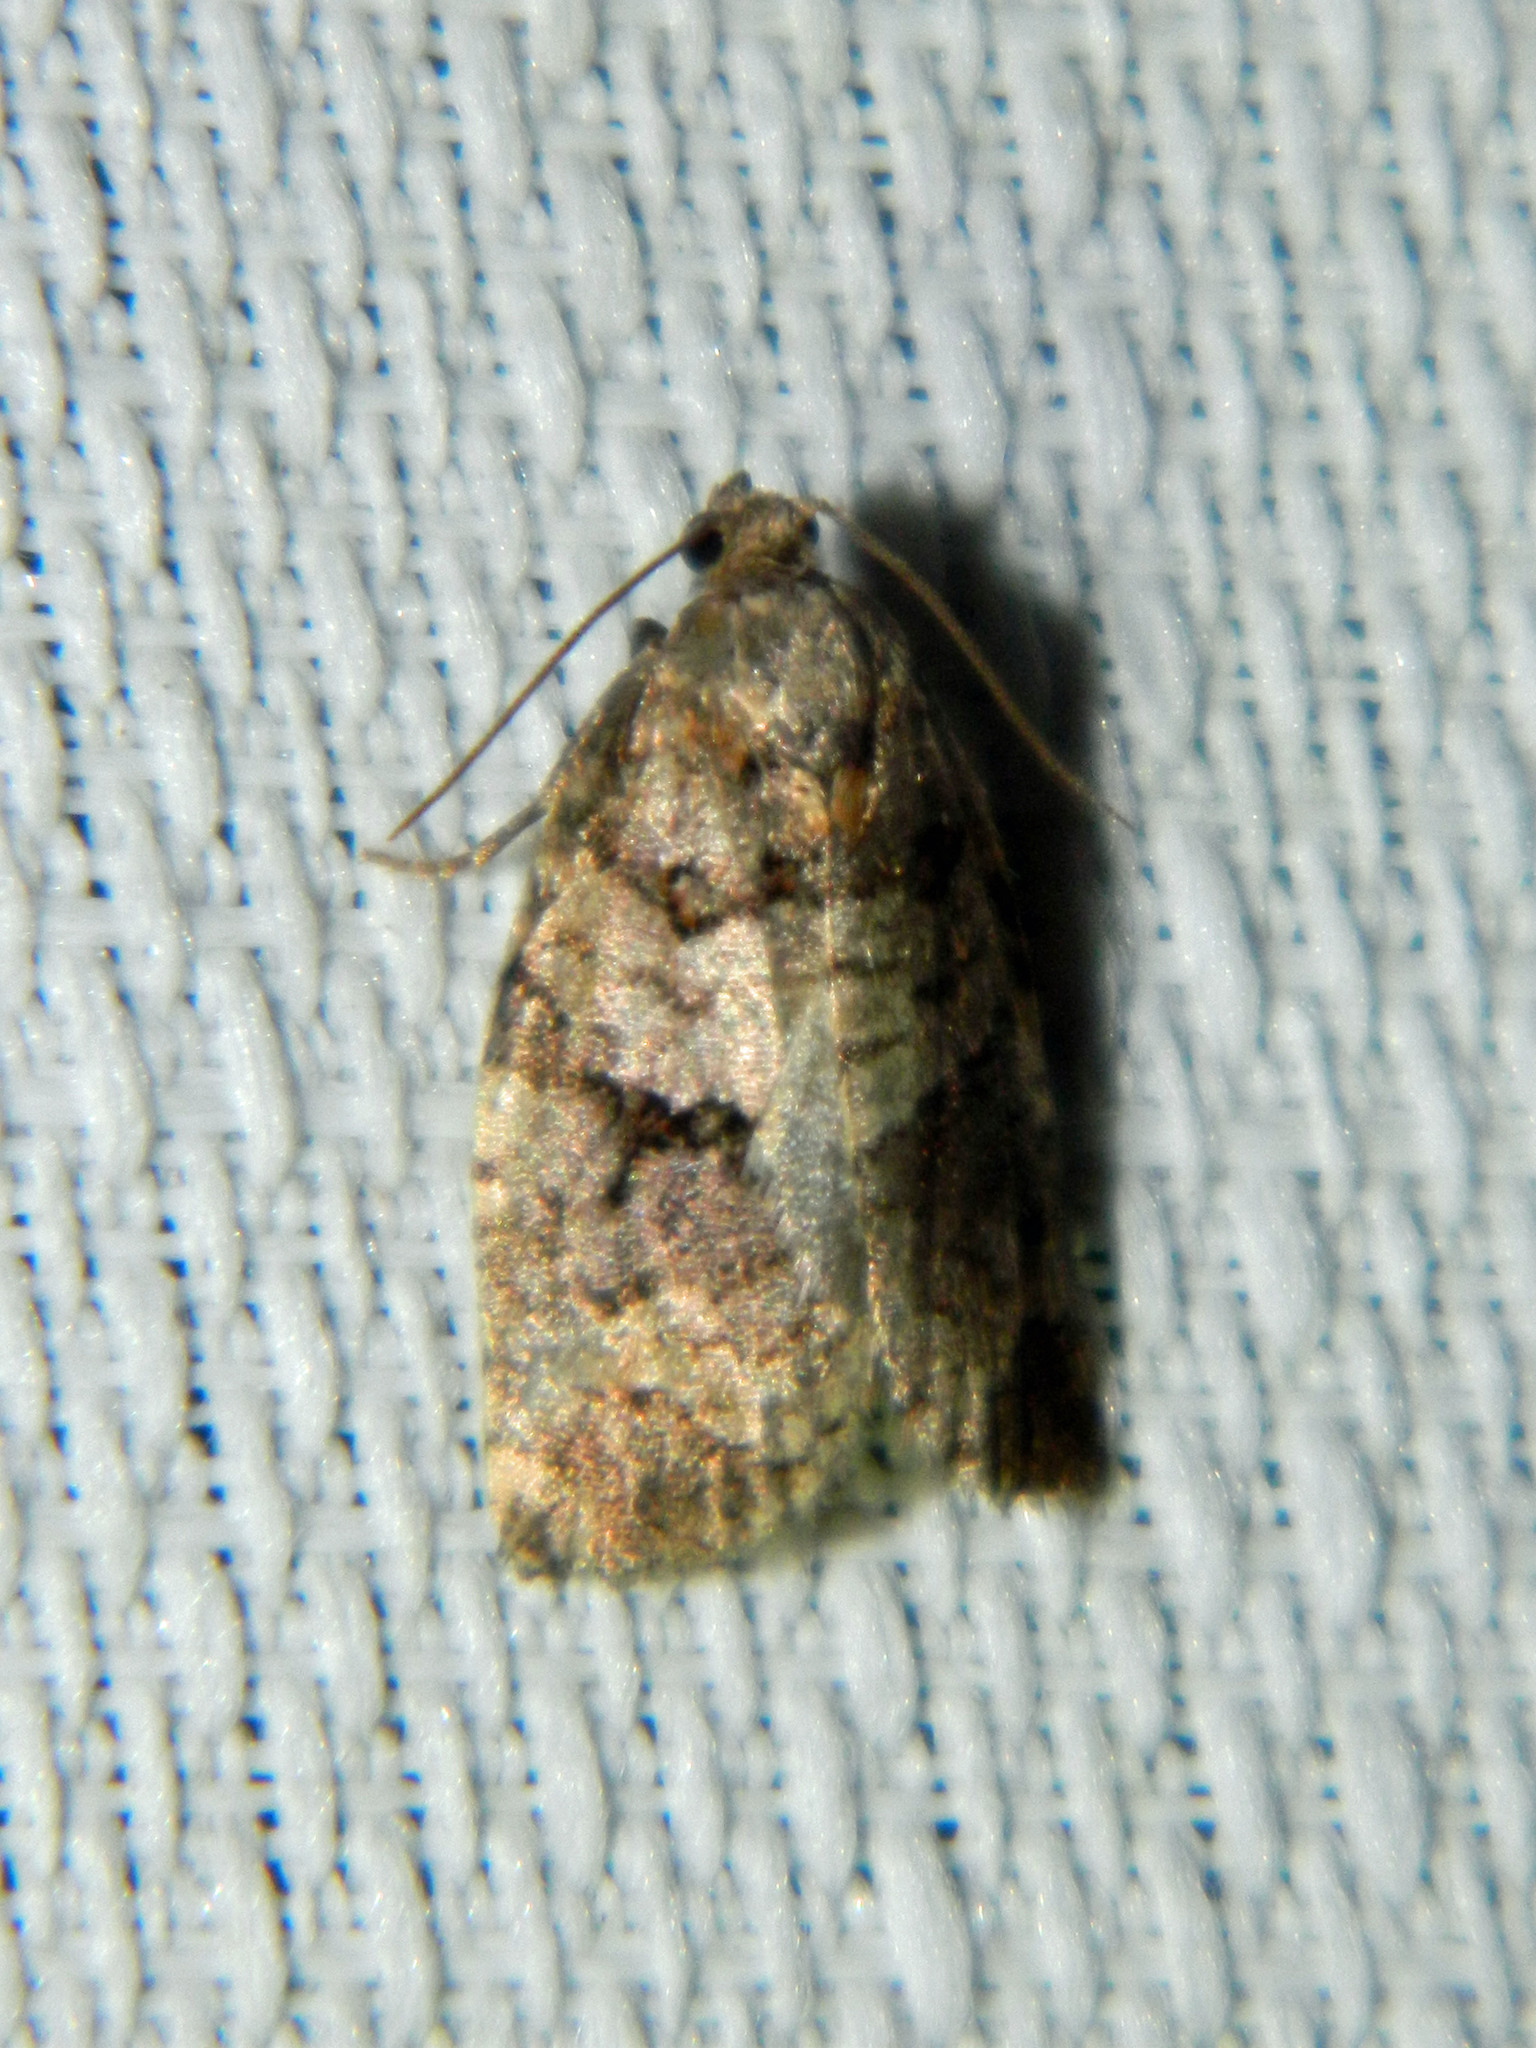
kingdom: Animalia
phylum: Arthropoda
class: Insecta
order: Lepidoptera
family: Tortricidae
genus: Archips
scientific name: Archips alberta
